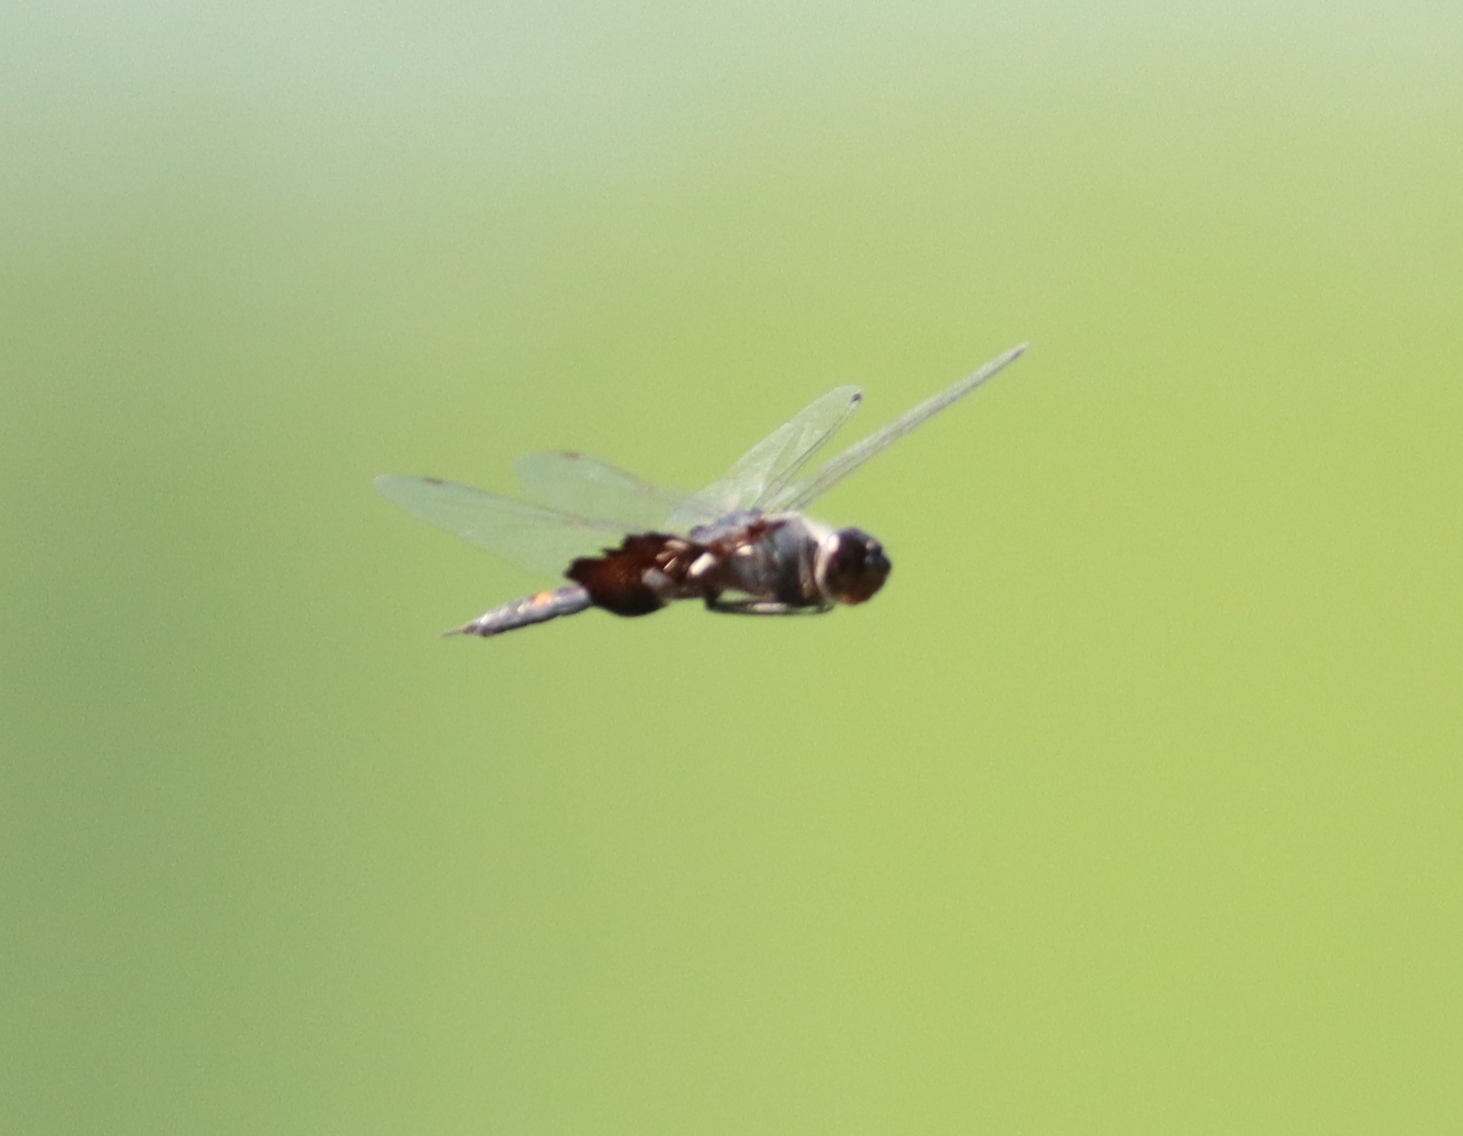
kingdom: Animalia
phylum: Arthropoda
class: Insecta
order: Odonata
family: Libellulidae
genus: Tramea
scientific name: Tramea lacerata
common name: Black saddlebags
